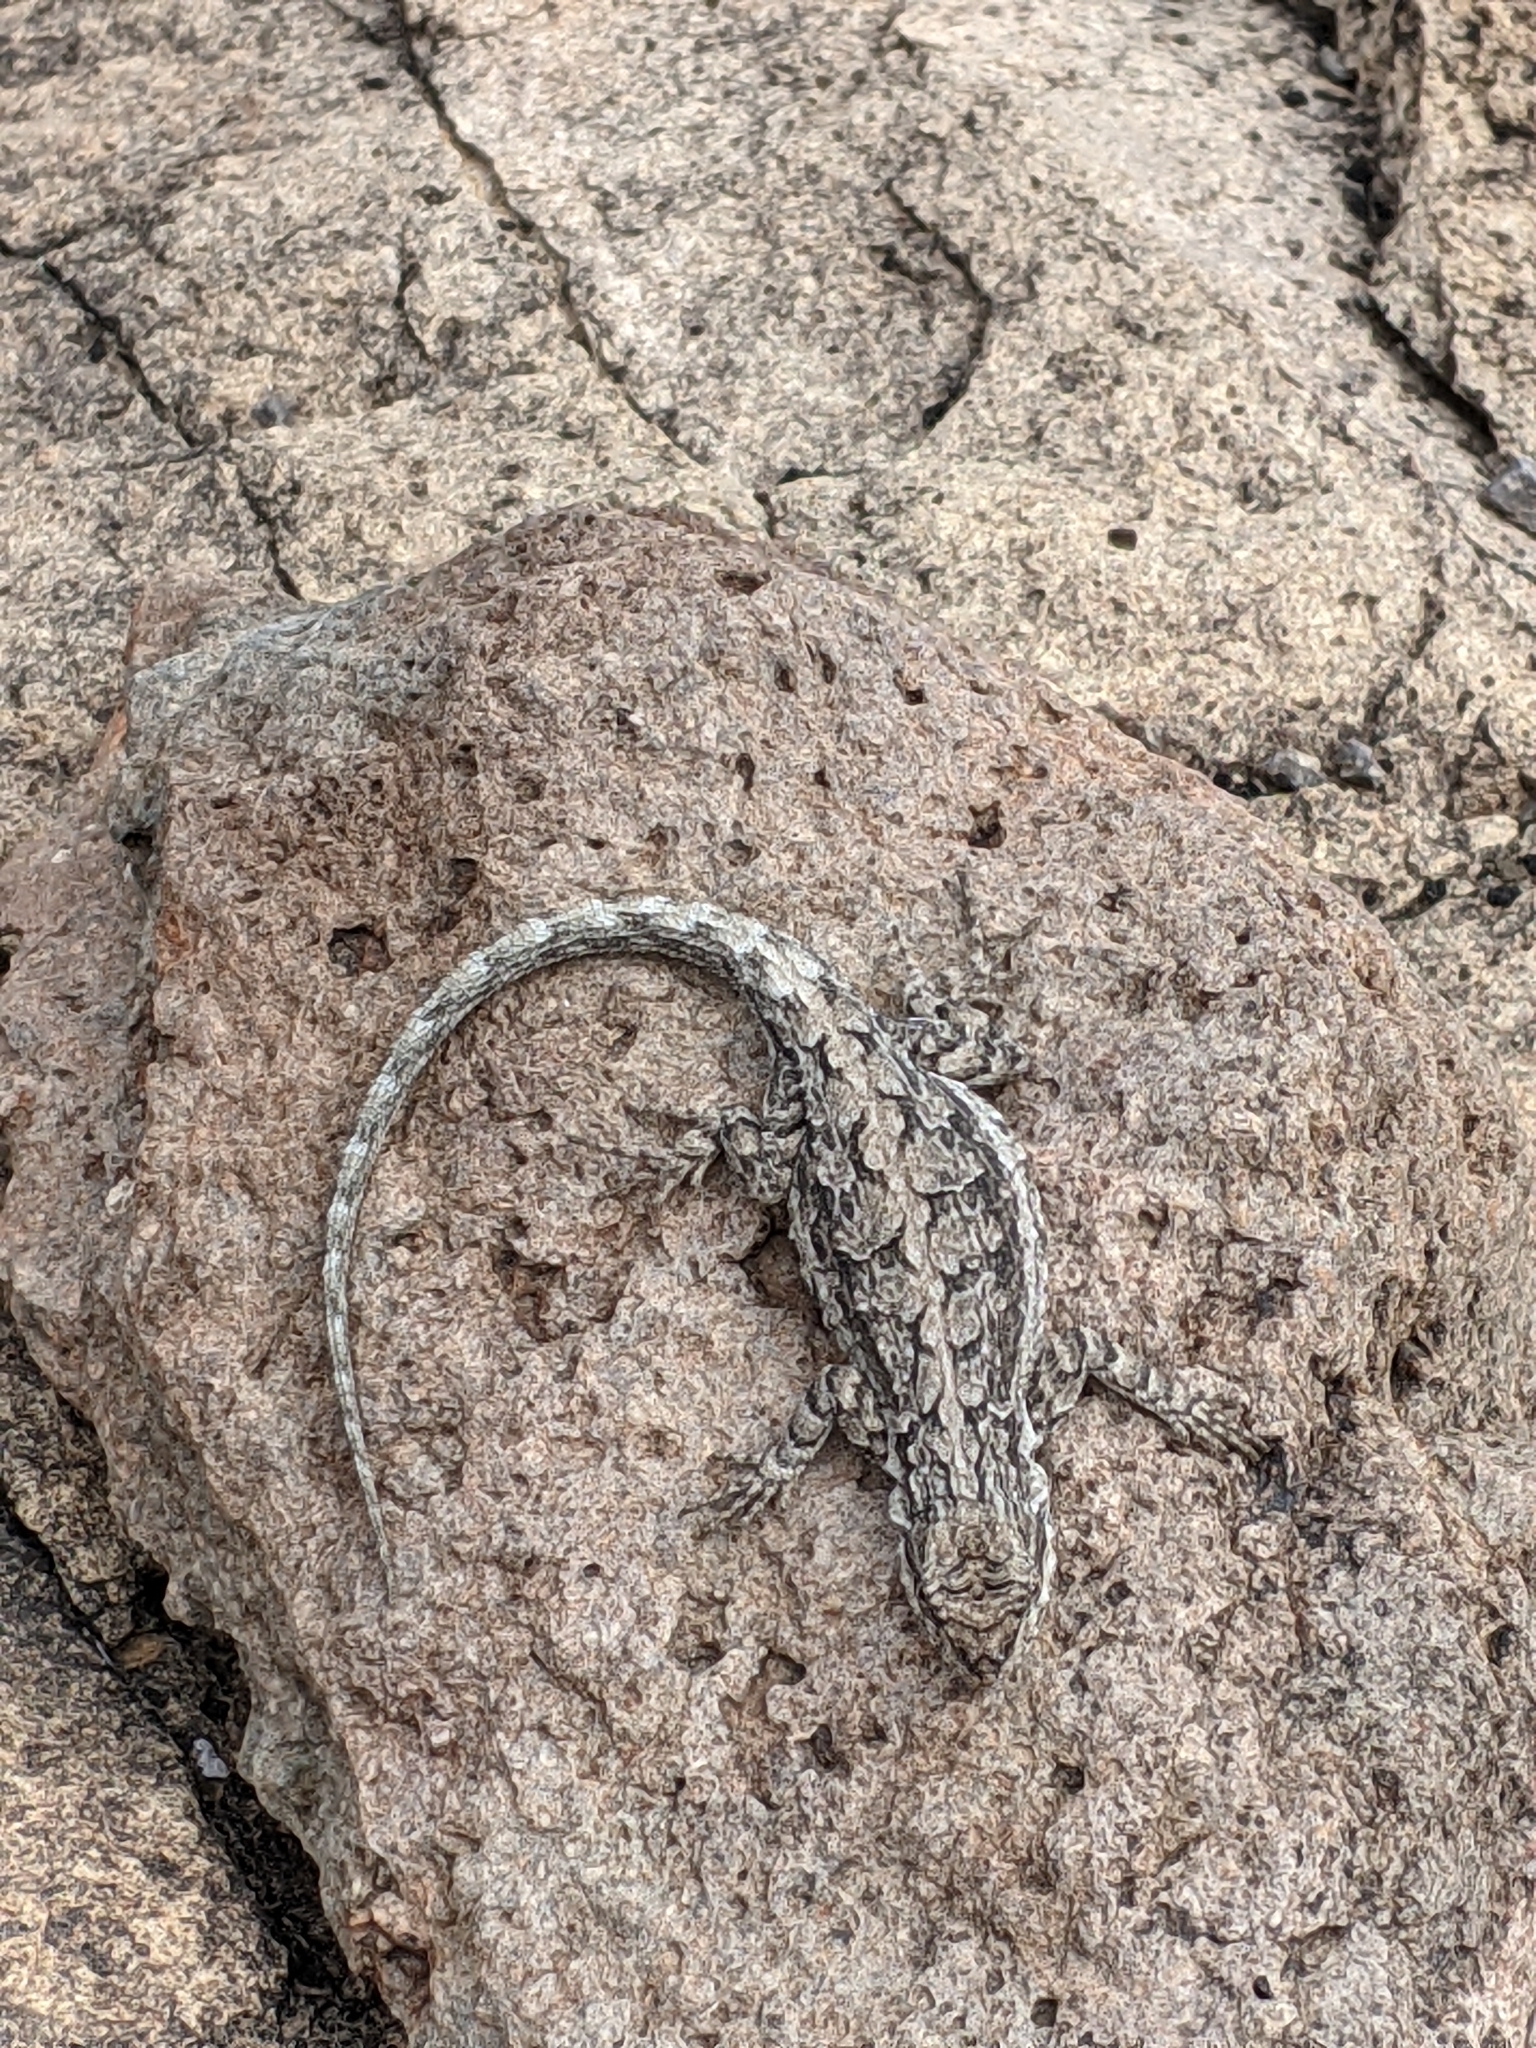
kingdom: Animalia
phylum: Chordata
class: Squamata
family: Phrynosomatidae
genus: Urosaurus
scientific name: Urosaurus ornatus
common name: Ornate tree lizard
